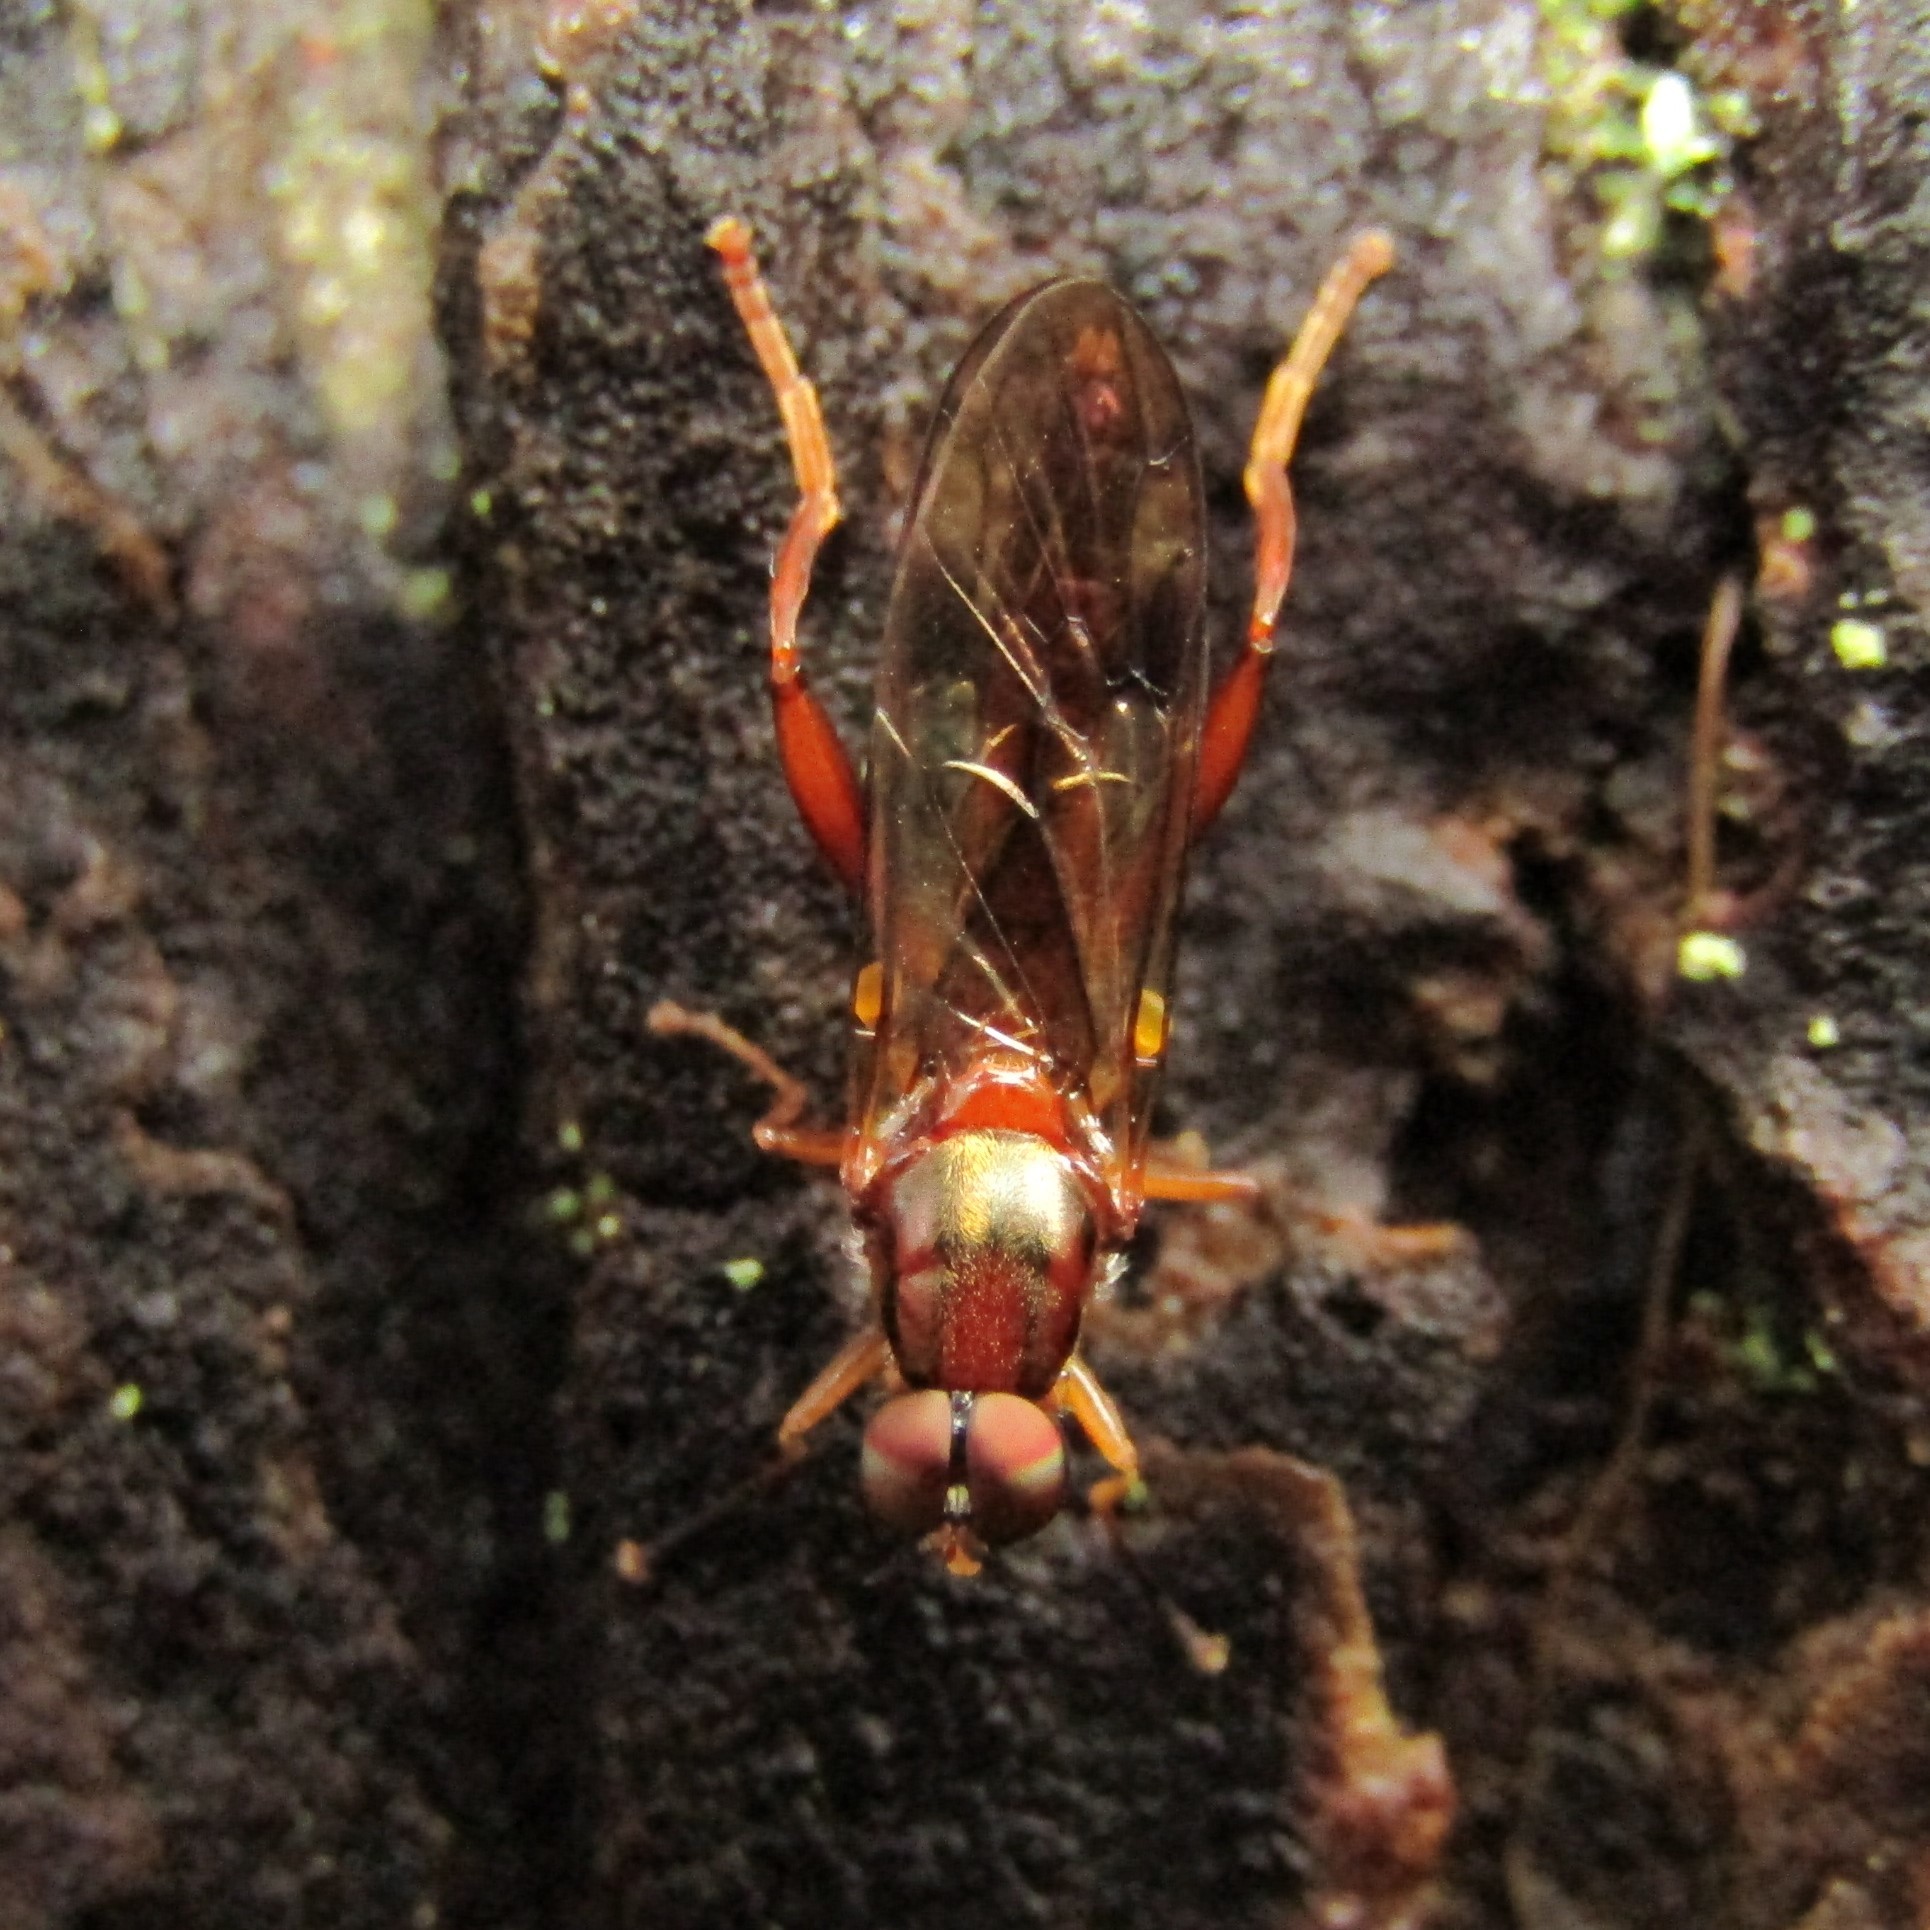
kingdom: Animalia
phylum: Arthropoda
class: Insecta
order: Diptera
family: Stratiomyidae
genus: Benhamyia
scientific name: Benhamyia straznitzkii
